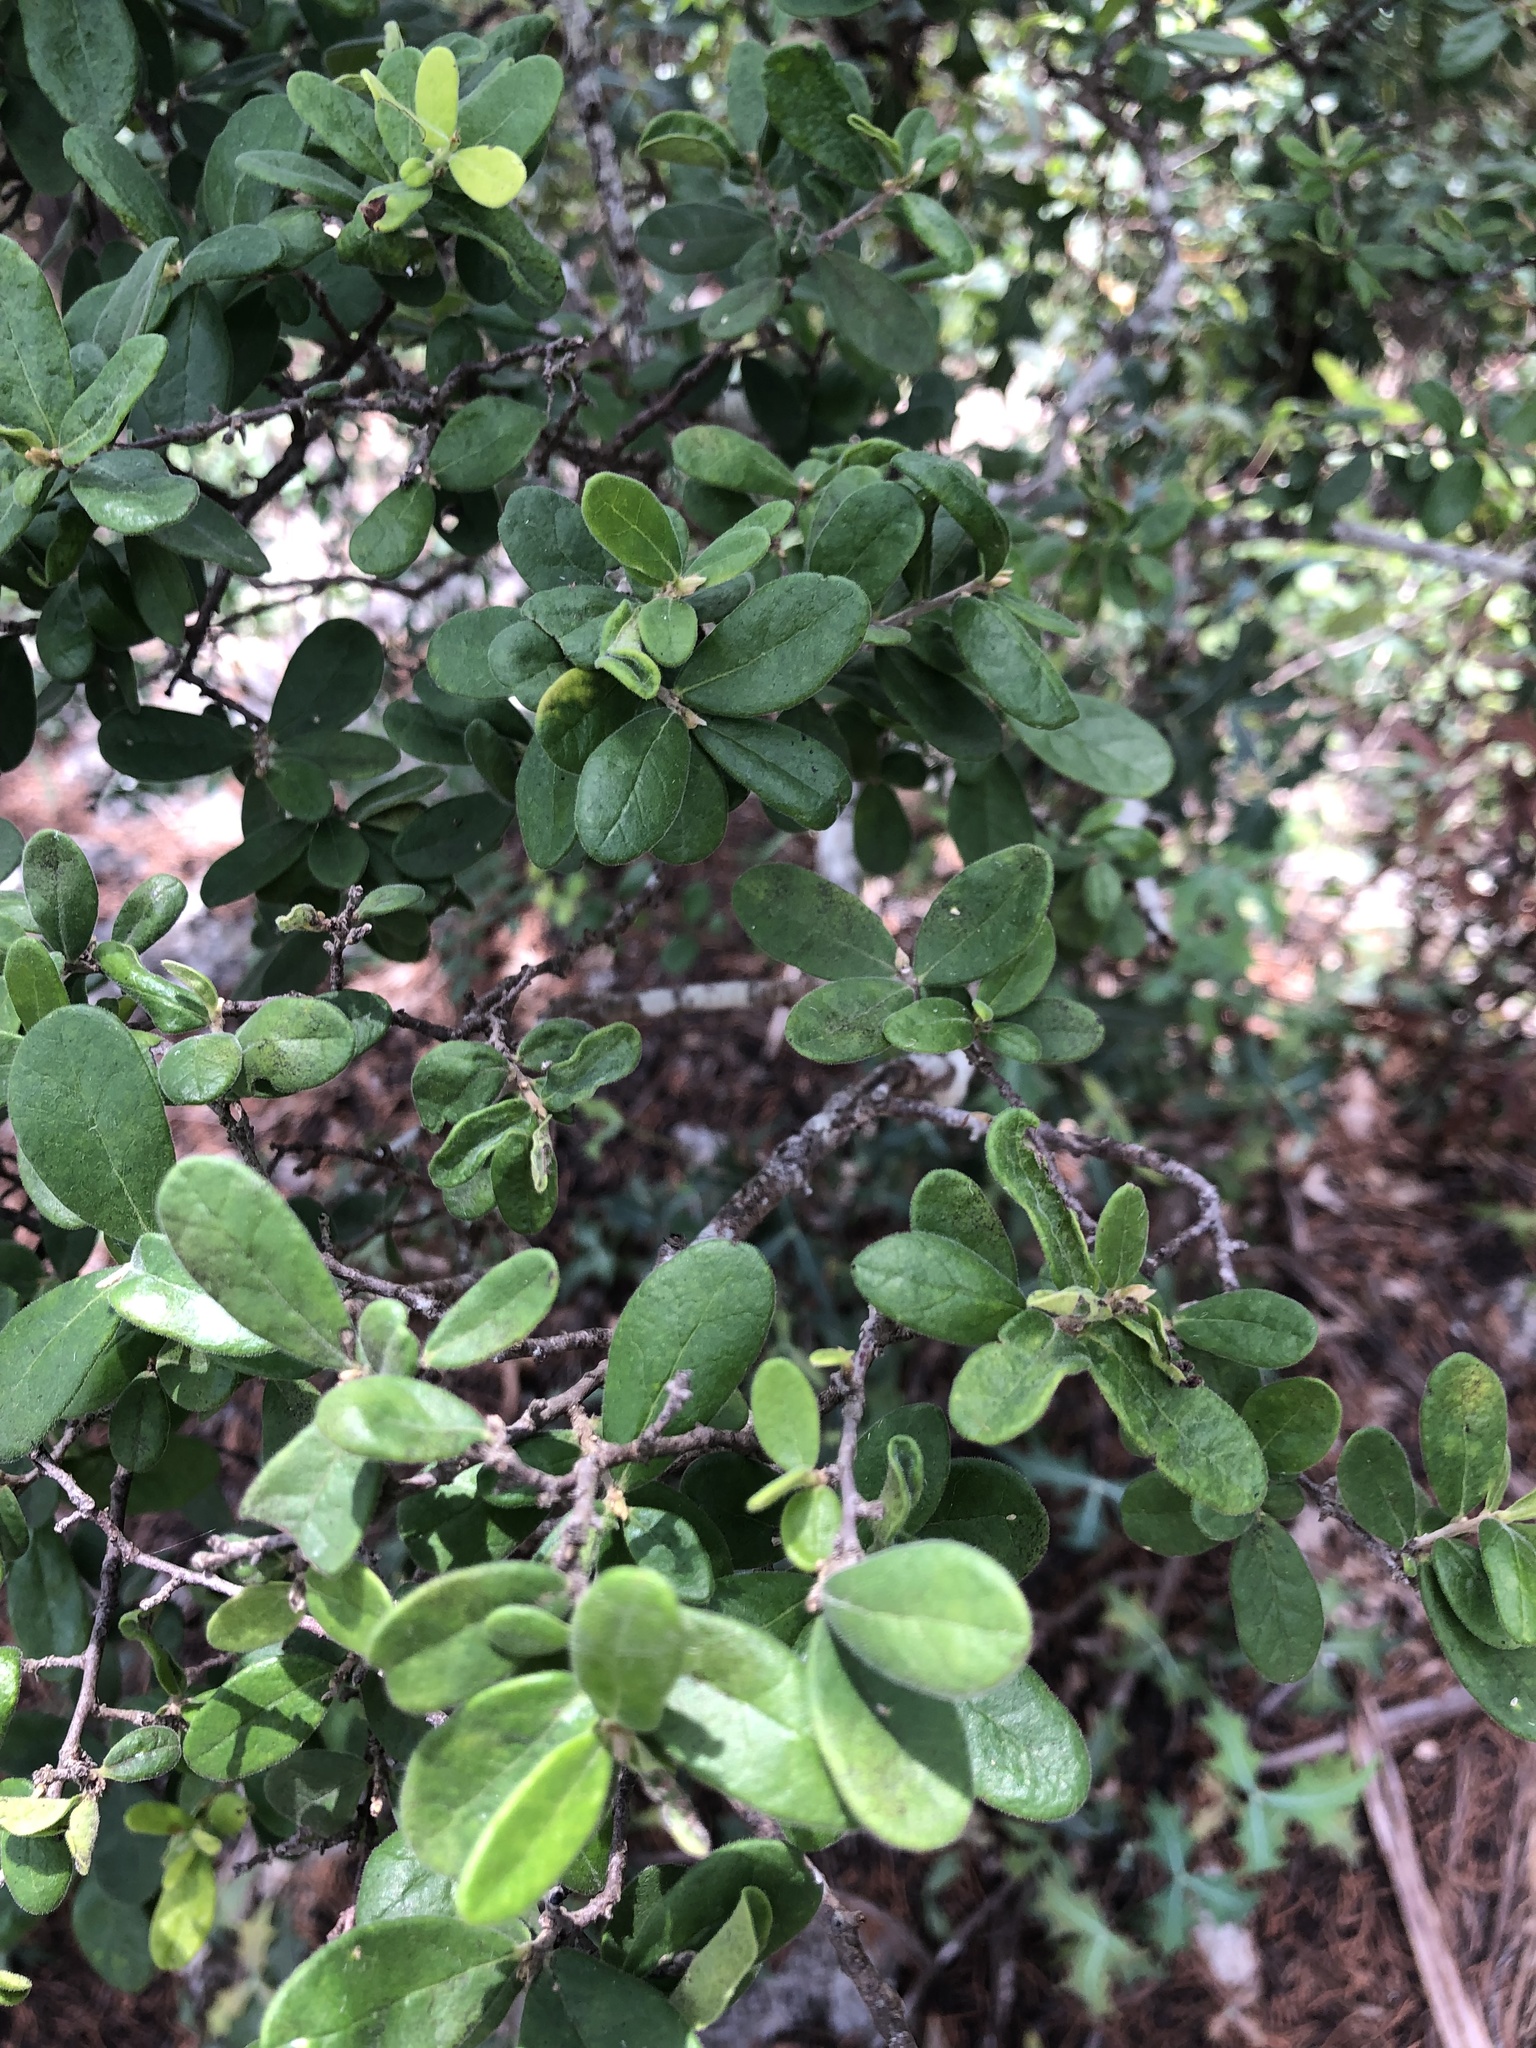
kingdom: Plantae
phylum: Tracheophyta
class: Magnoliopsida
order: Ericales
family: Ebenaceae
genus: Diospyros
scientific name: Diospyros texana
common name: Texas persimmon
